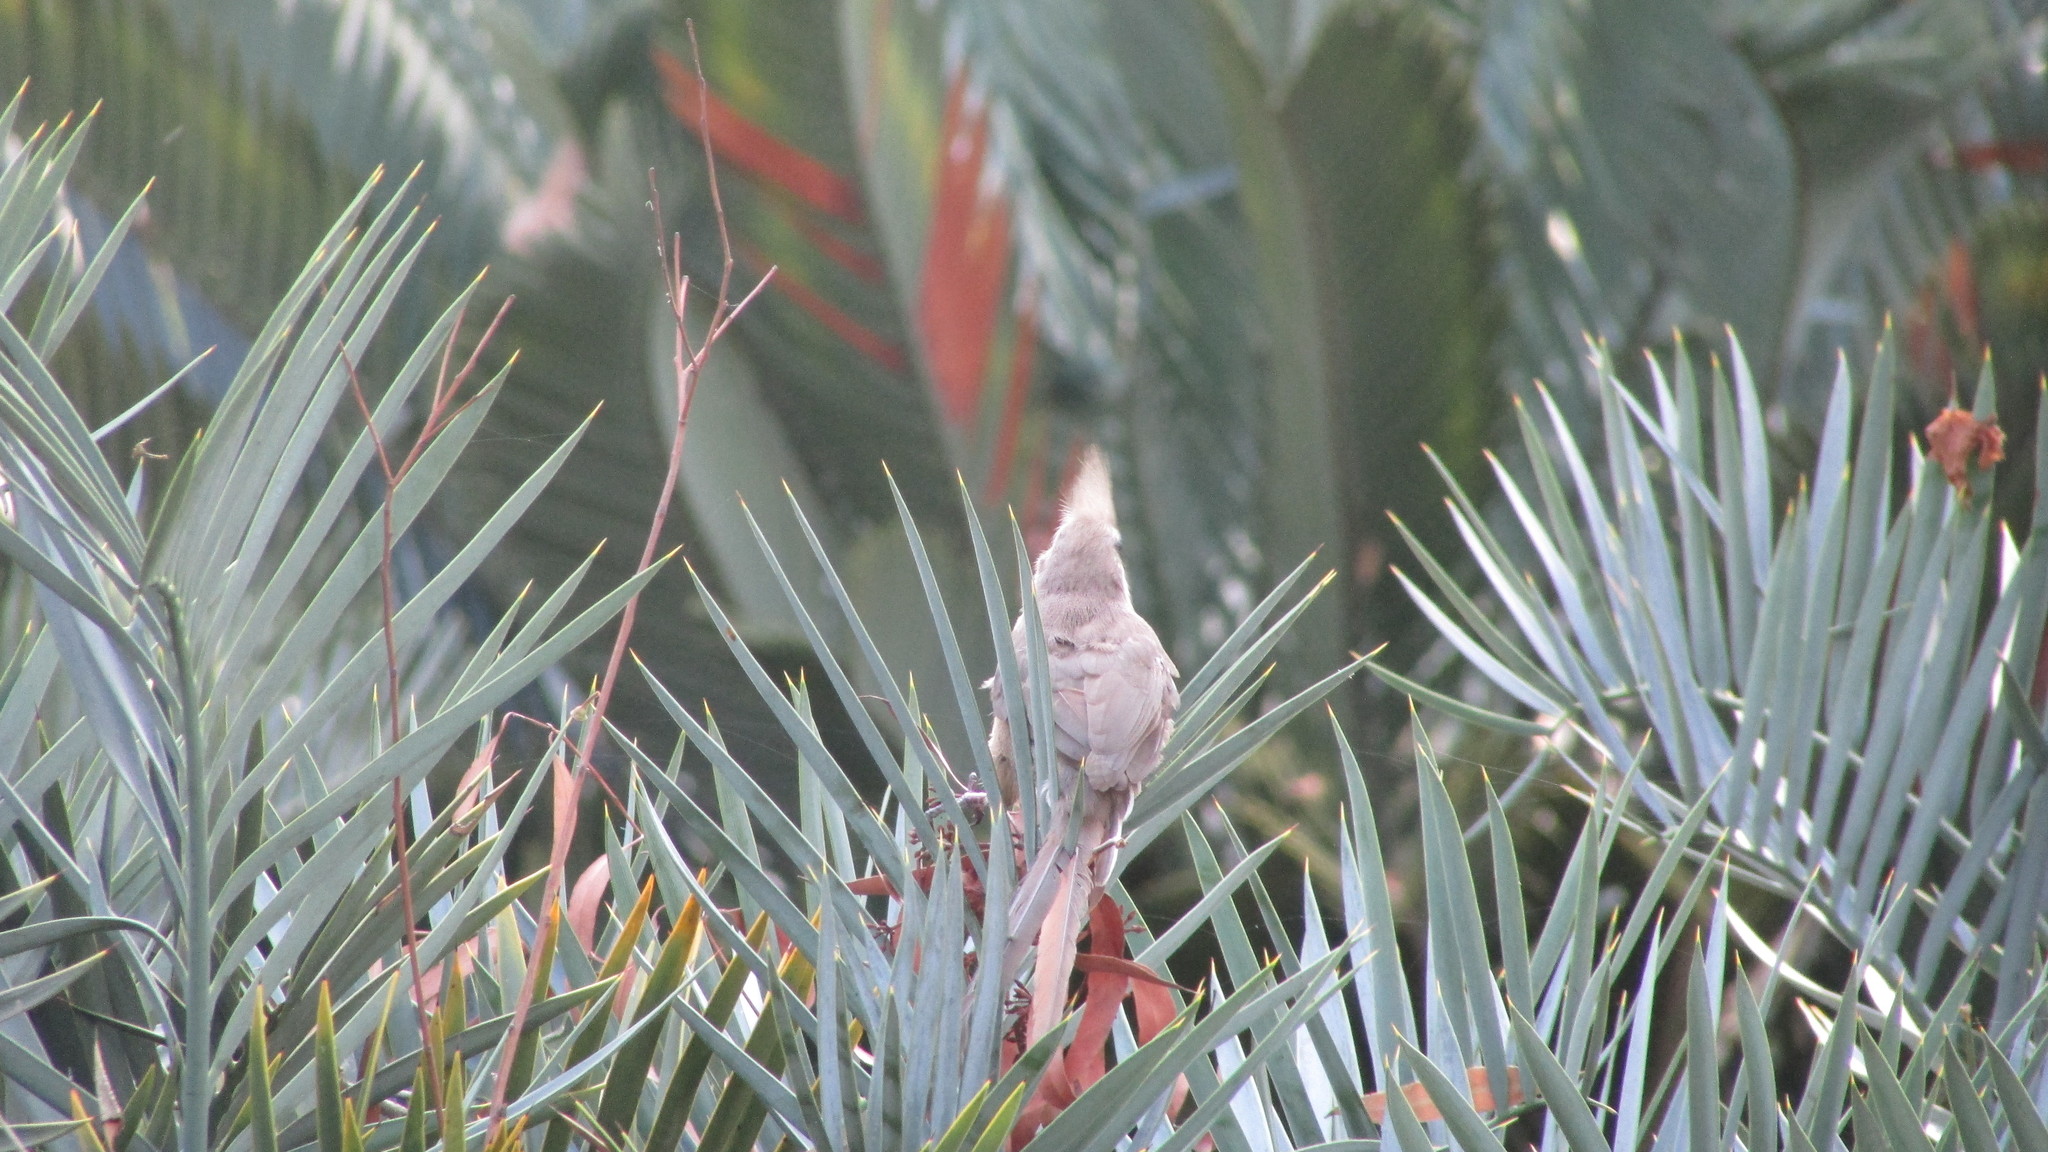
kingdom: Animalia
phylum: Chordata
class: Aves
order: Coliiformes
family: Coliidae
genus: Colius
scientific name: Colius striatus
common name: Speckled mousebird
